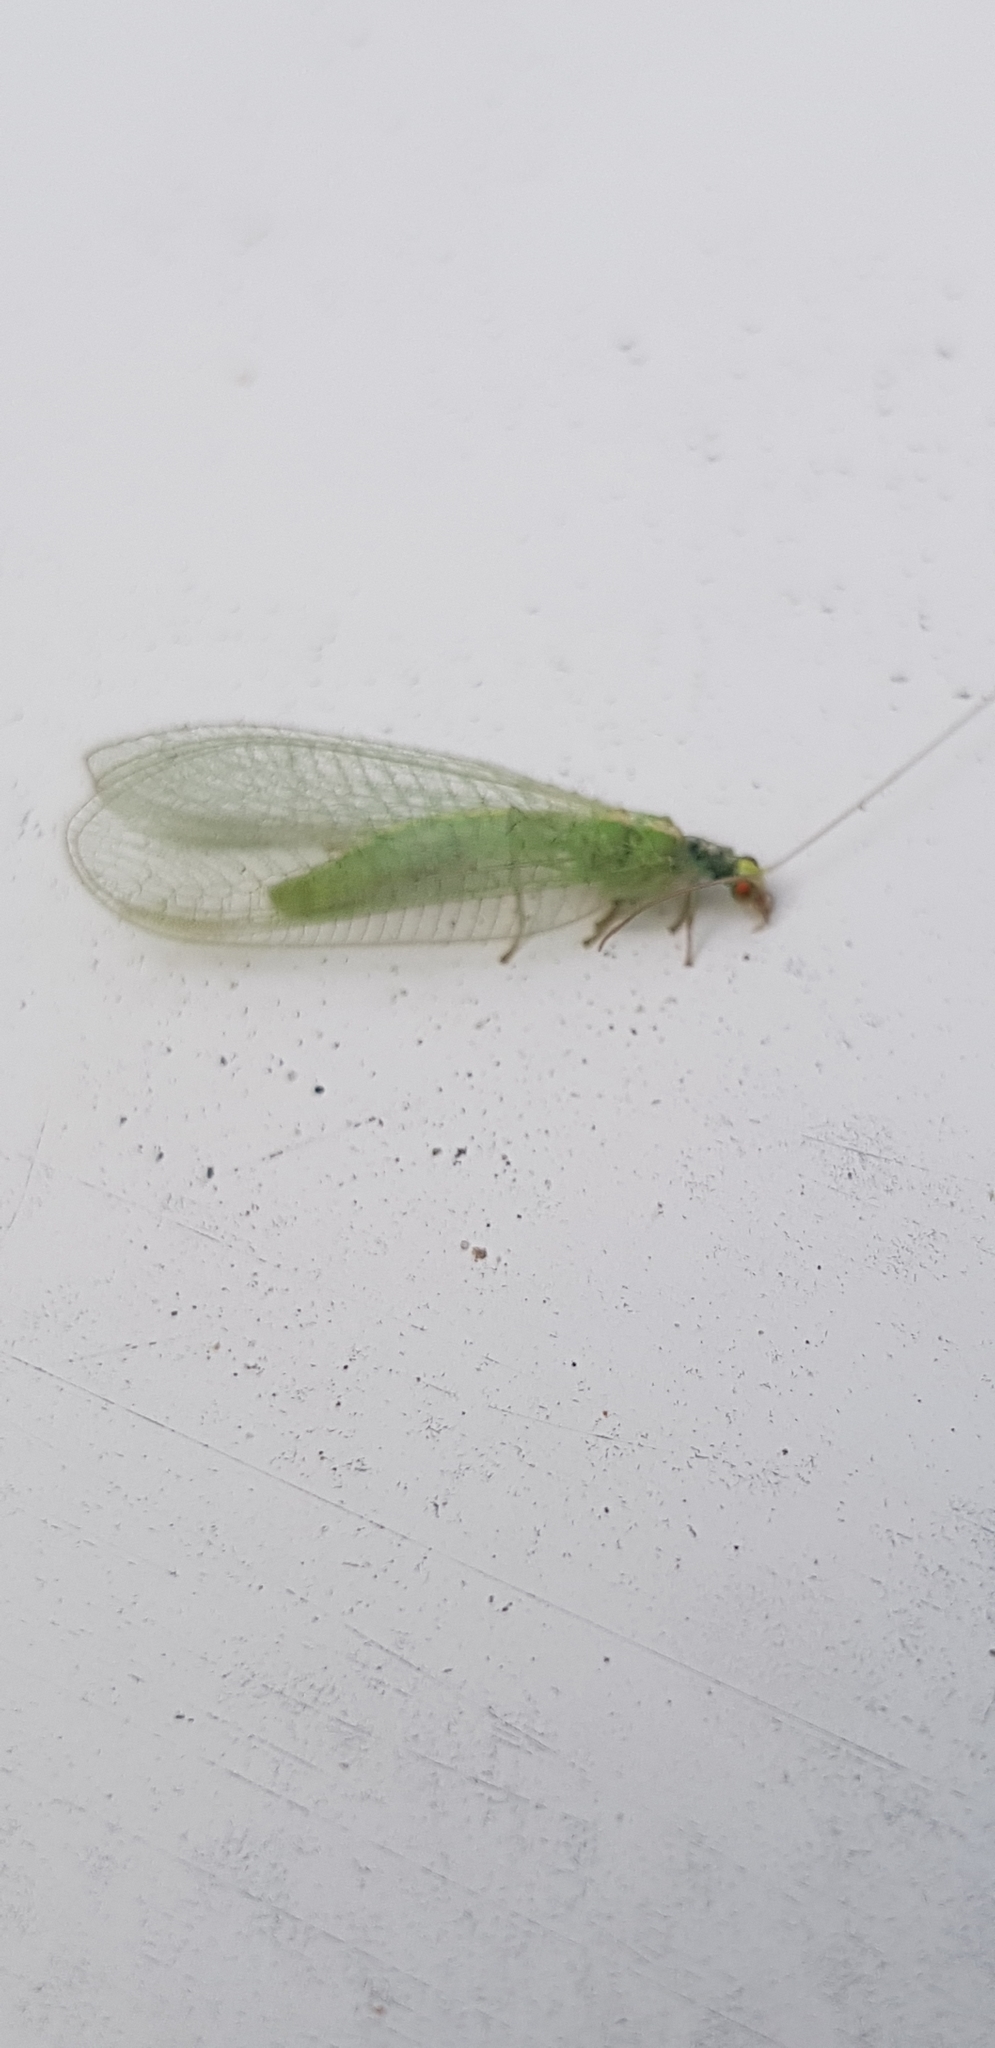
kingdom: Animalia
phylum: Arthropoda
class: Insecta
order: Neuroptera
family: Chrysopidae
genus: Chrysoperla
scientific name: Chrysoperla
